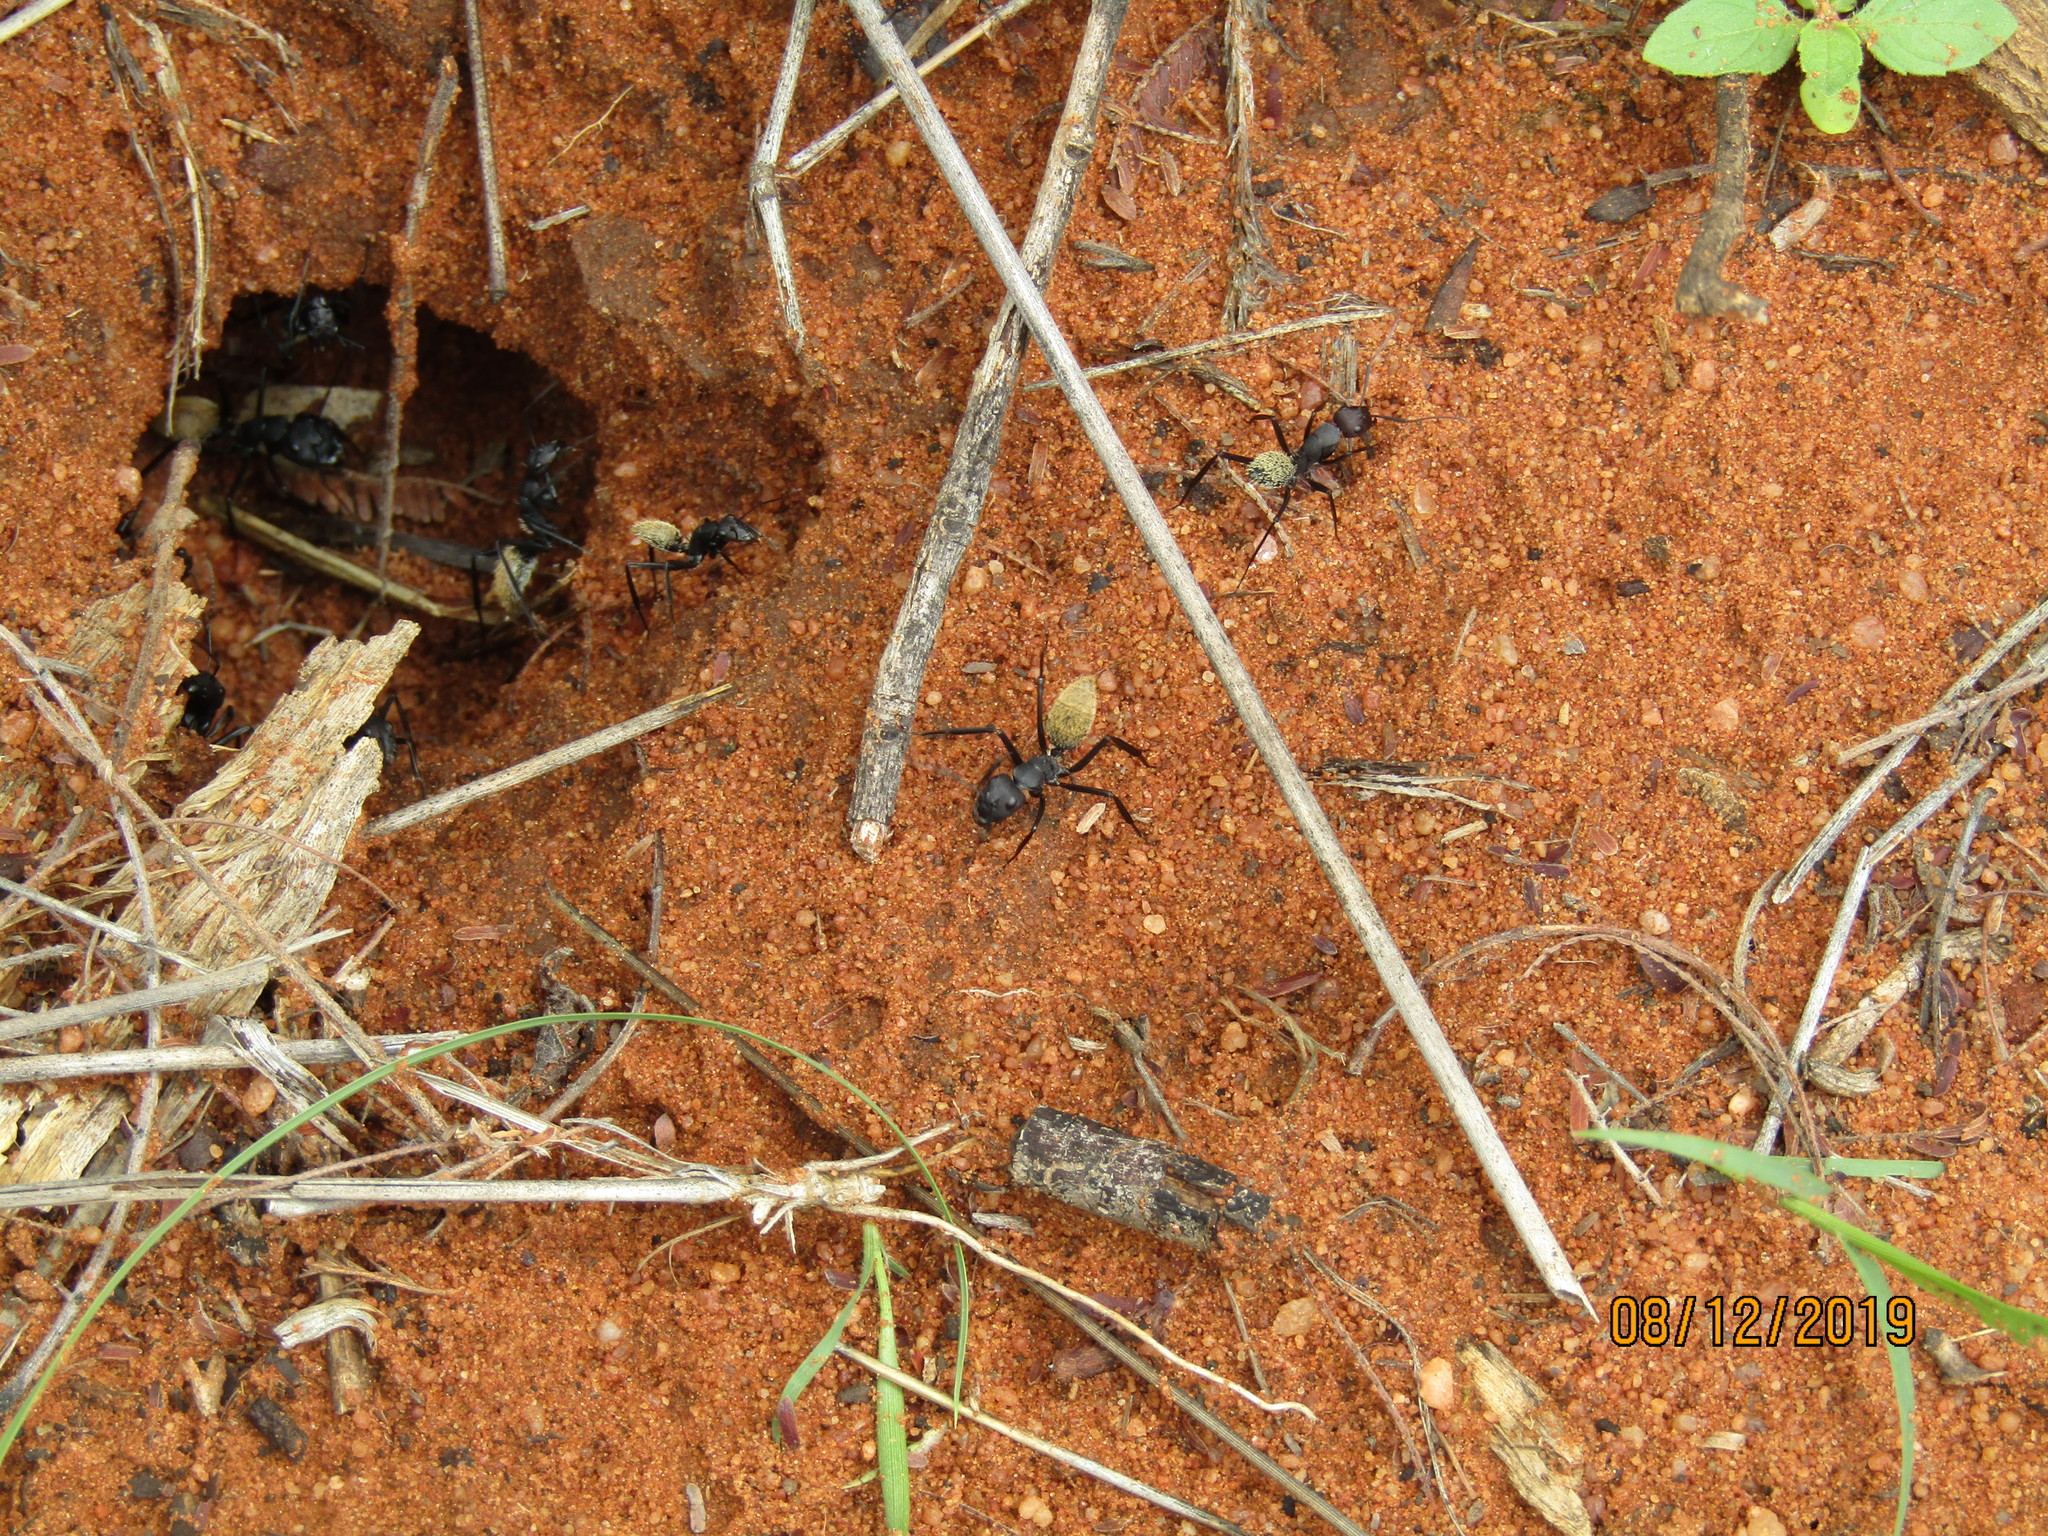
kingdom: Animalia
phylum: Arthropoda
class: Insecta
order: Hymenoptera
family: Formicidae
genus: Camponotus
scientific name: Camponotus fulvopilosus
